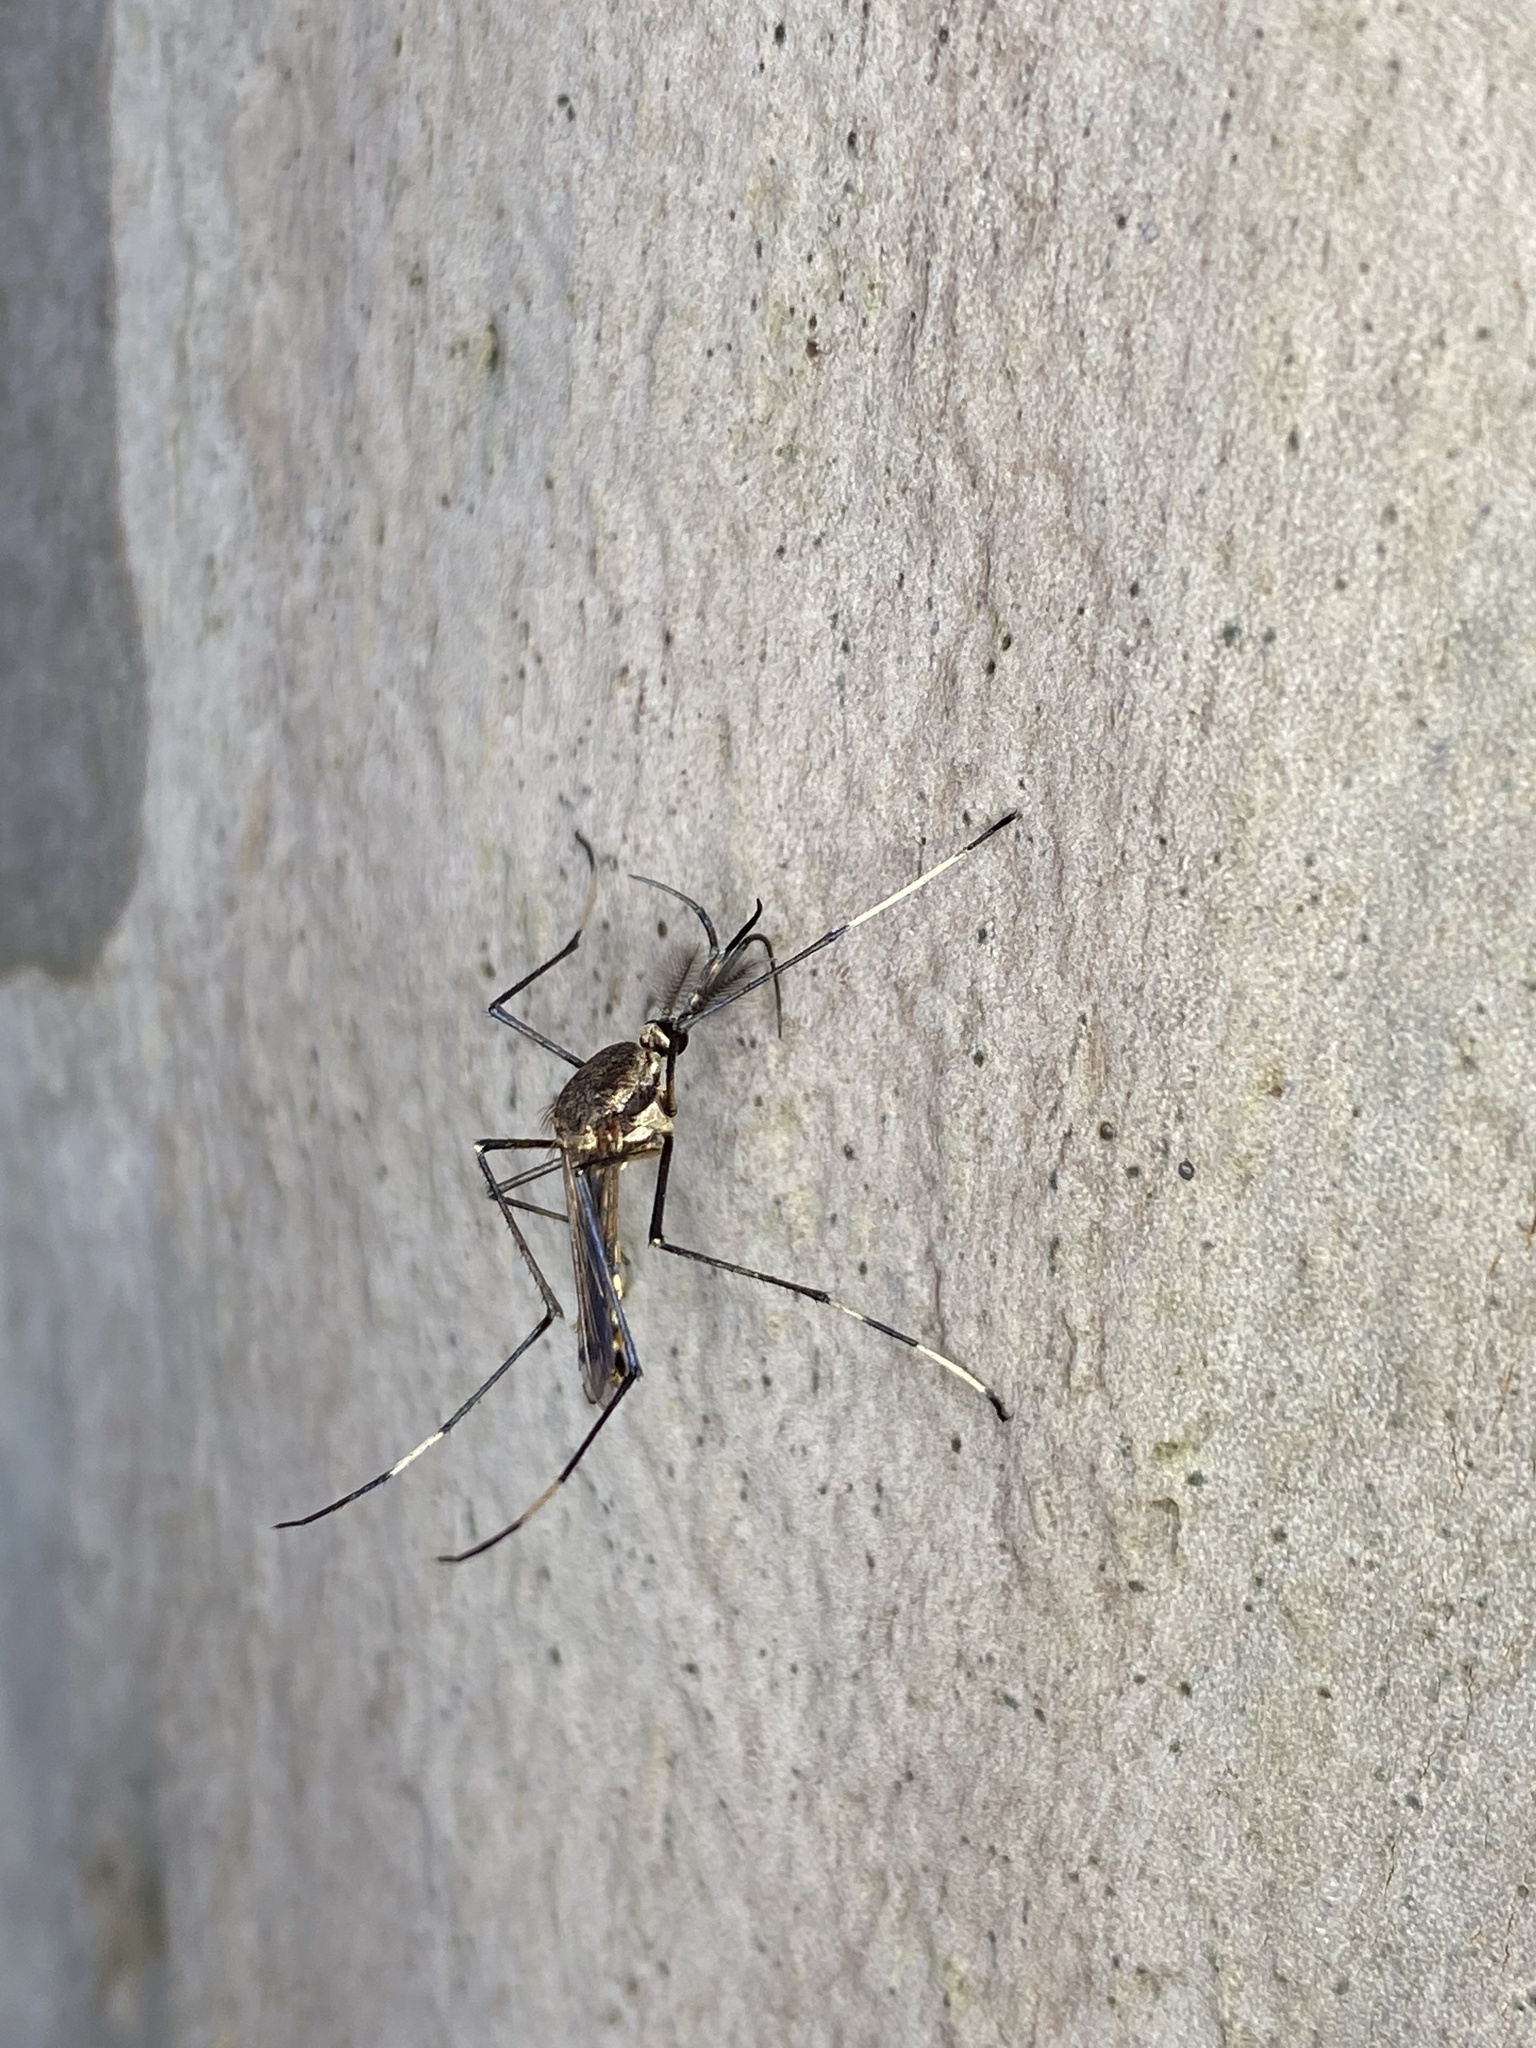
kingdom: Animalia
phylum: Arthropoda
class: Insecta
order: Diptera
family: Culicidae
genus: Toxorhynchites
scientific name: Toxorhynchites speciosus
